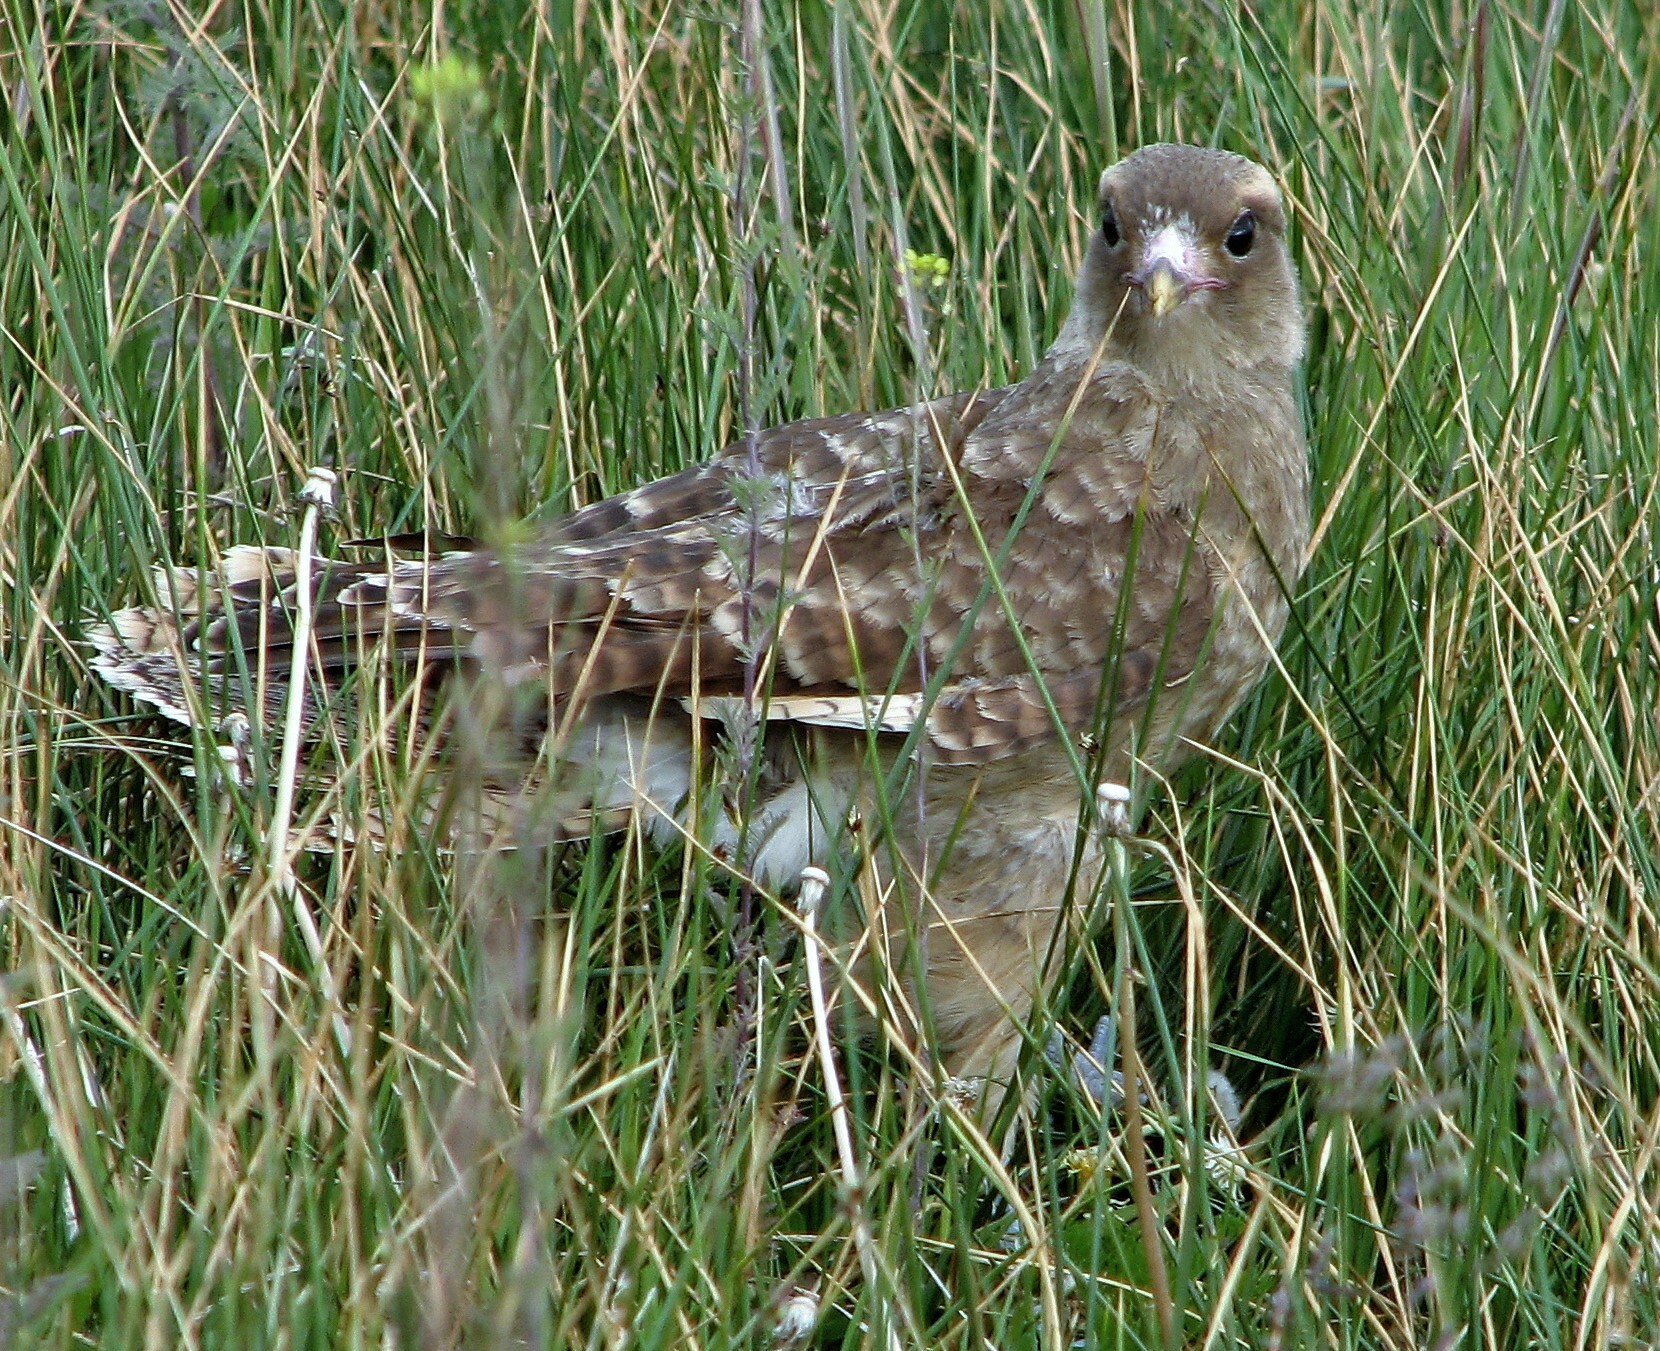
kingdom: Animalia
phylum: Chordata
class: Aves
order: Falconiformes
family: Falconidae
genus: Daptrius
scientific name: Daptrius
